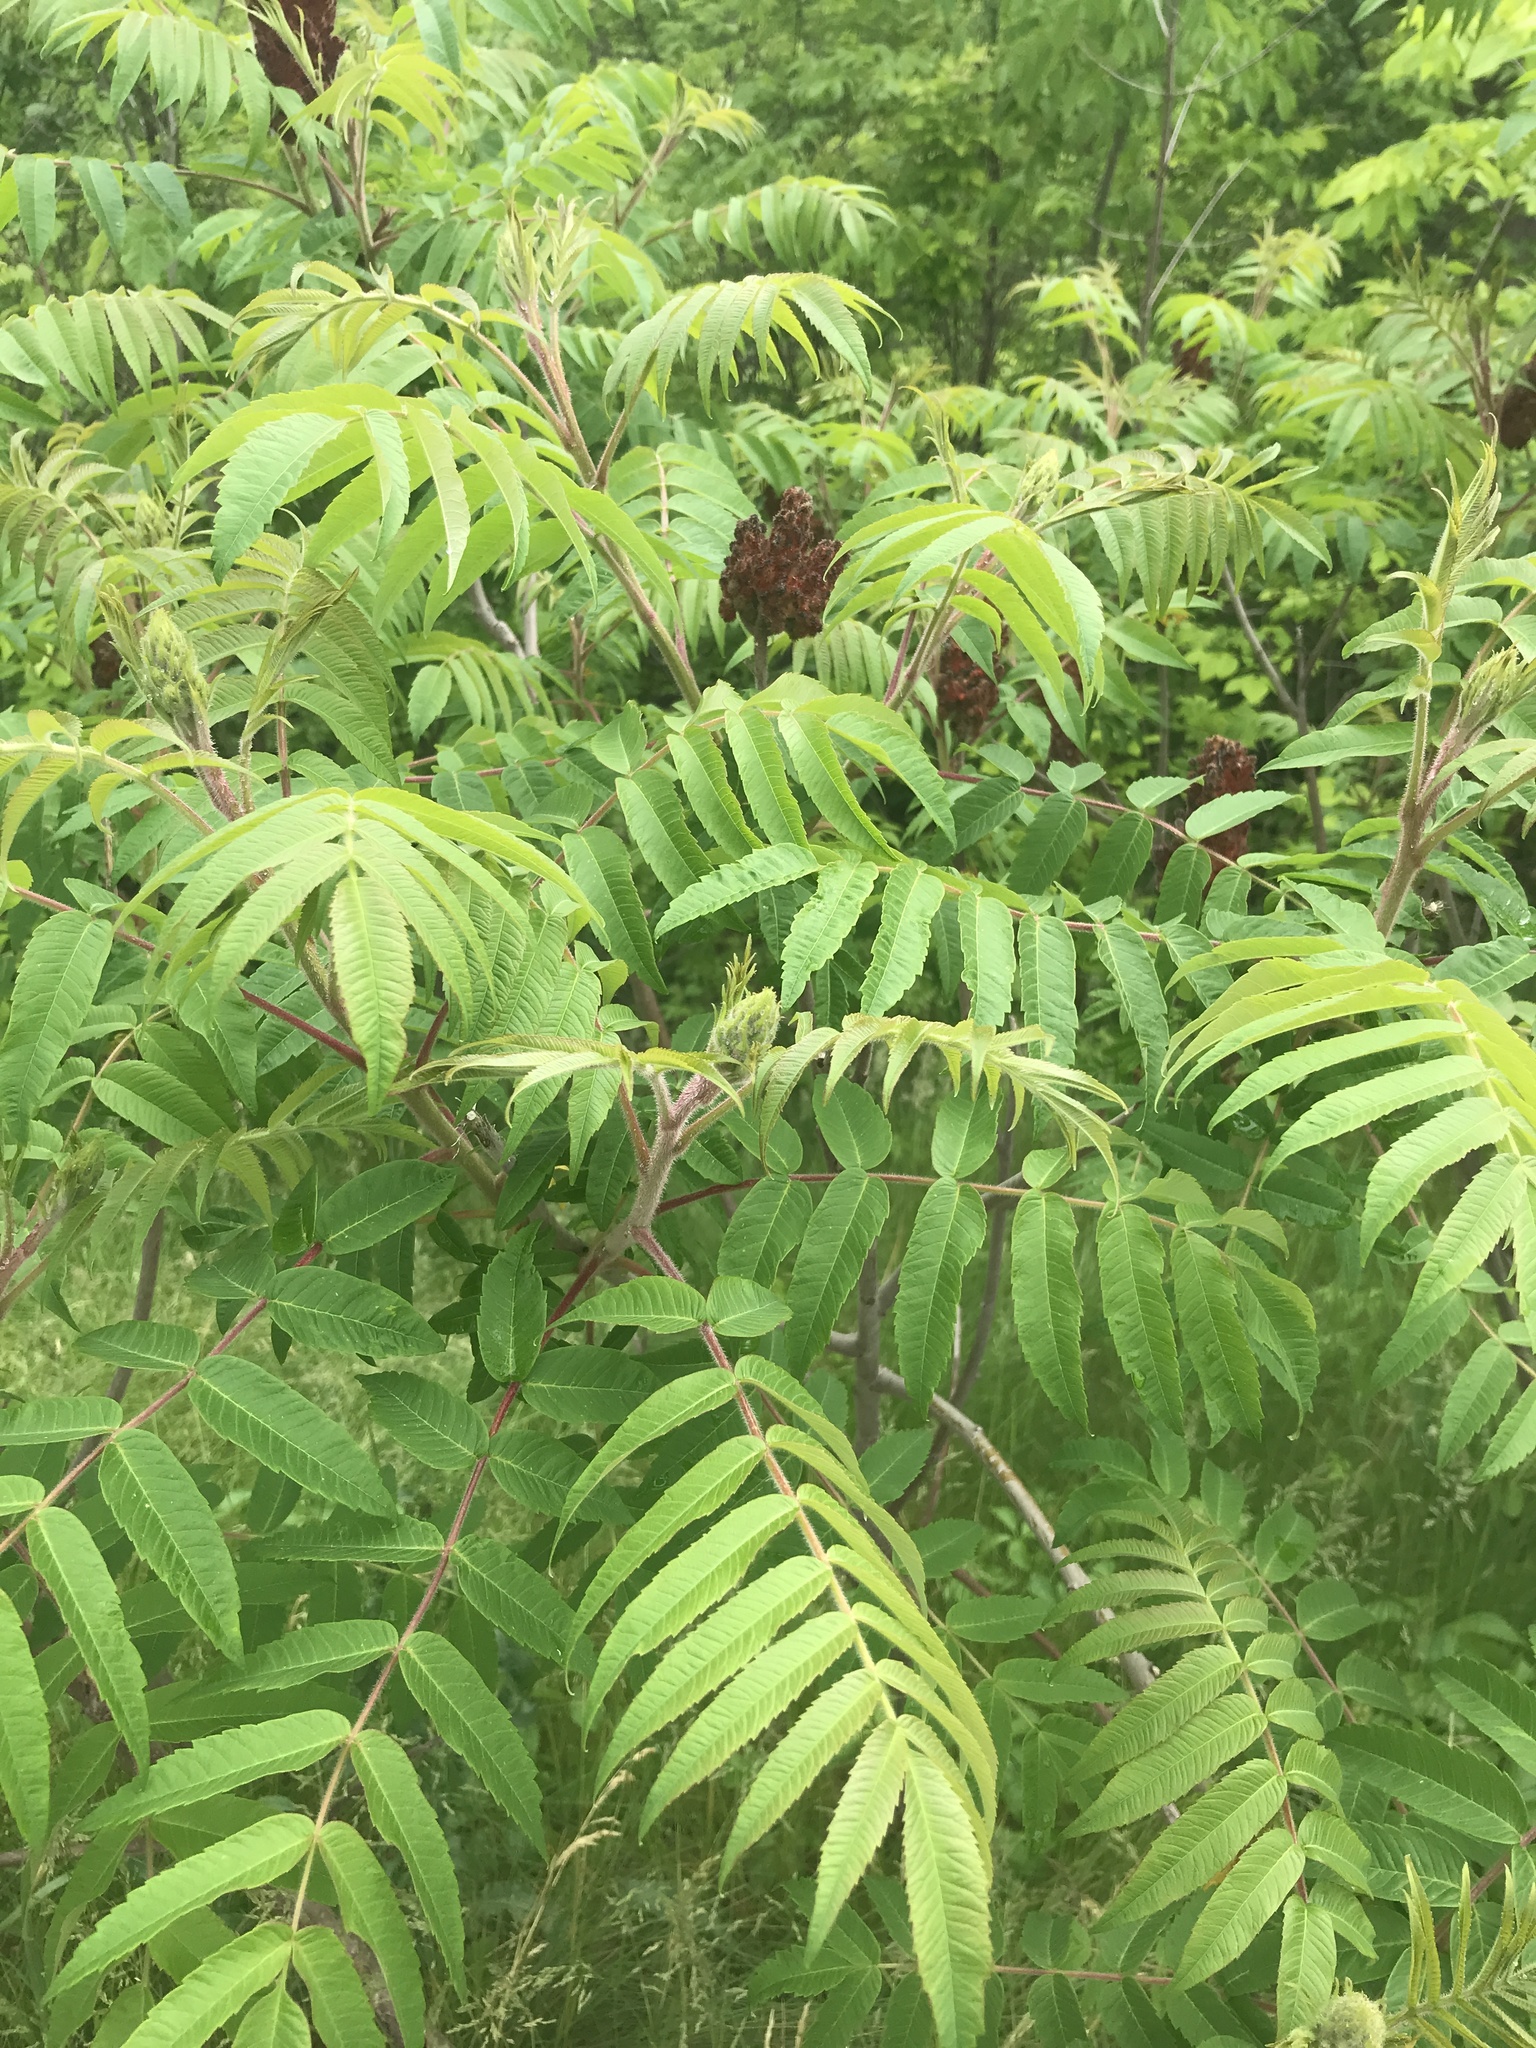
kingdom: Plantae
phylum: Tracheophyta
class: Magnoliopsida
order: Sapindales
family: Anacardiaceae
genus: Rhus
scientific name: Rhus typhina
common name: Staghorn sumac
